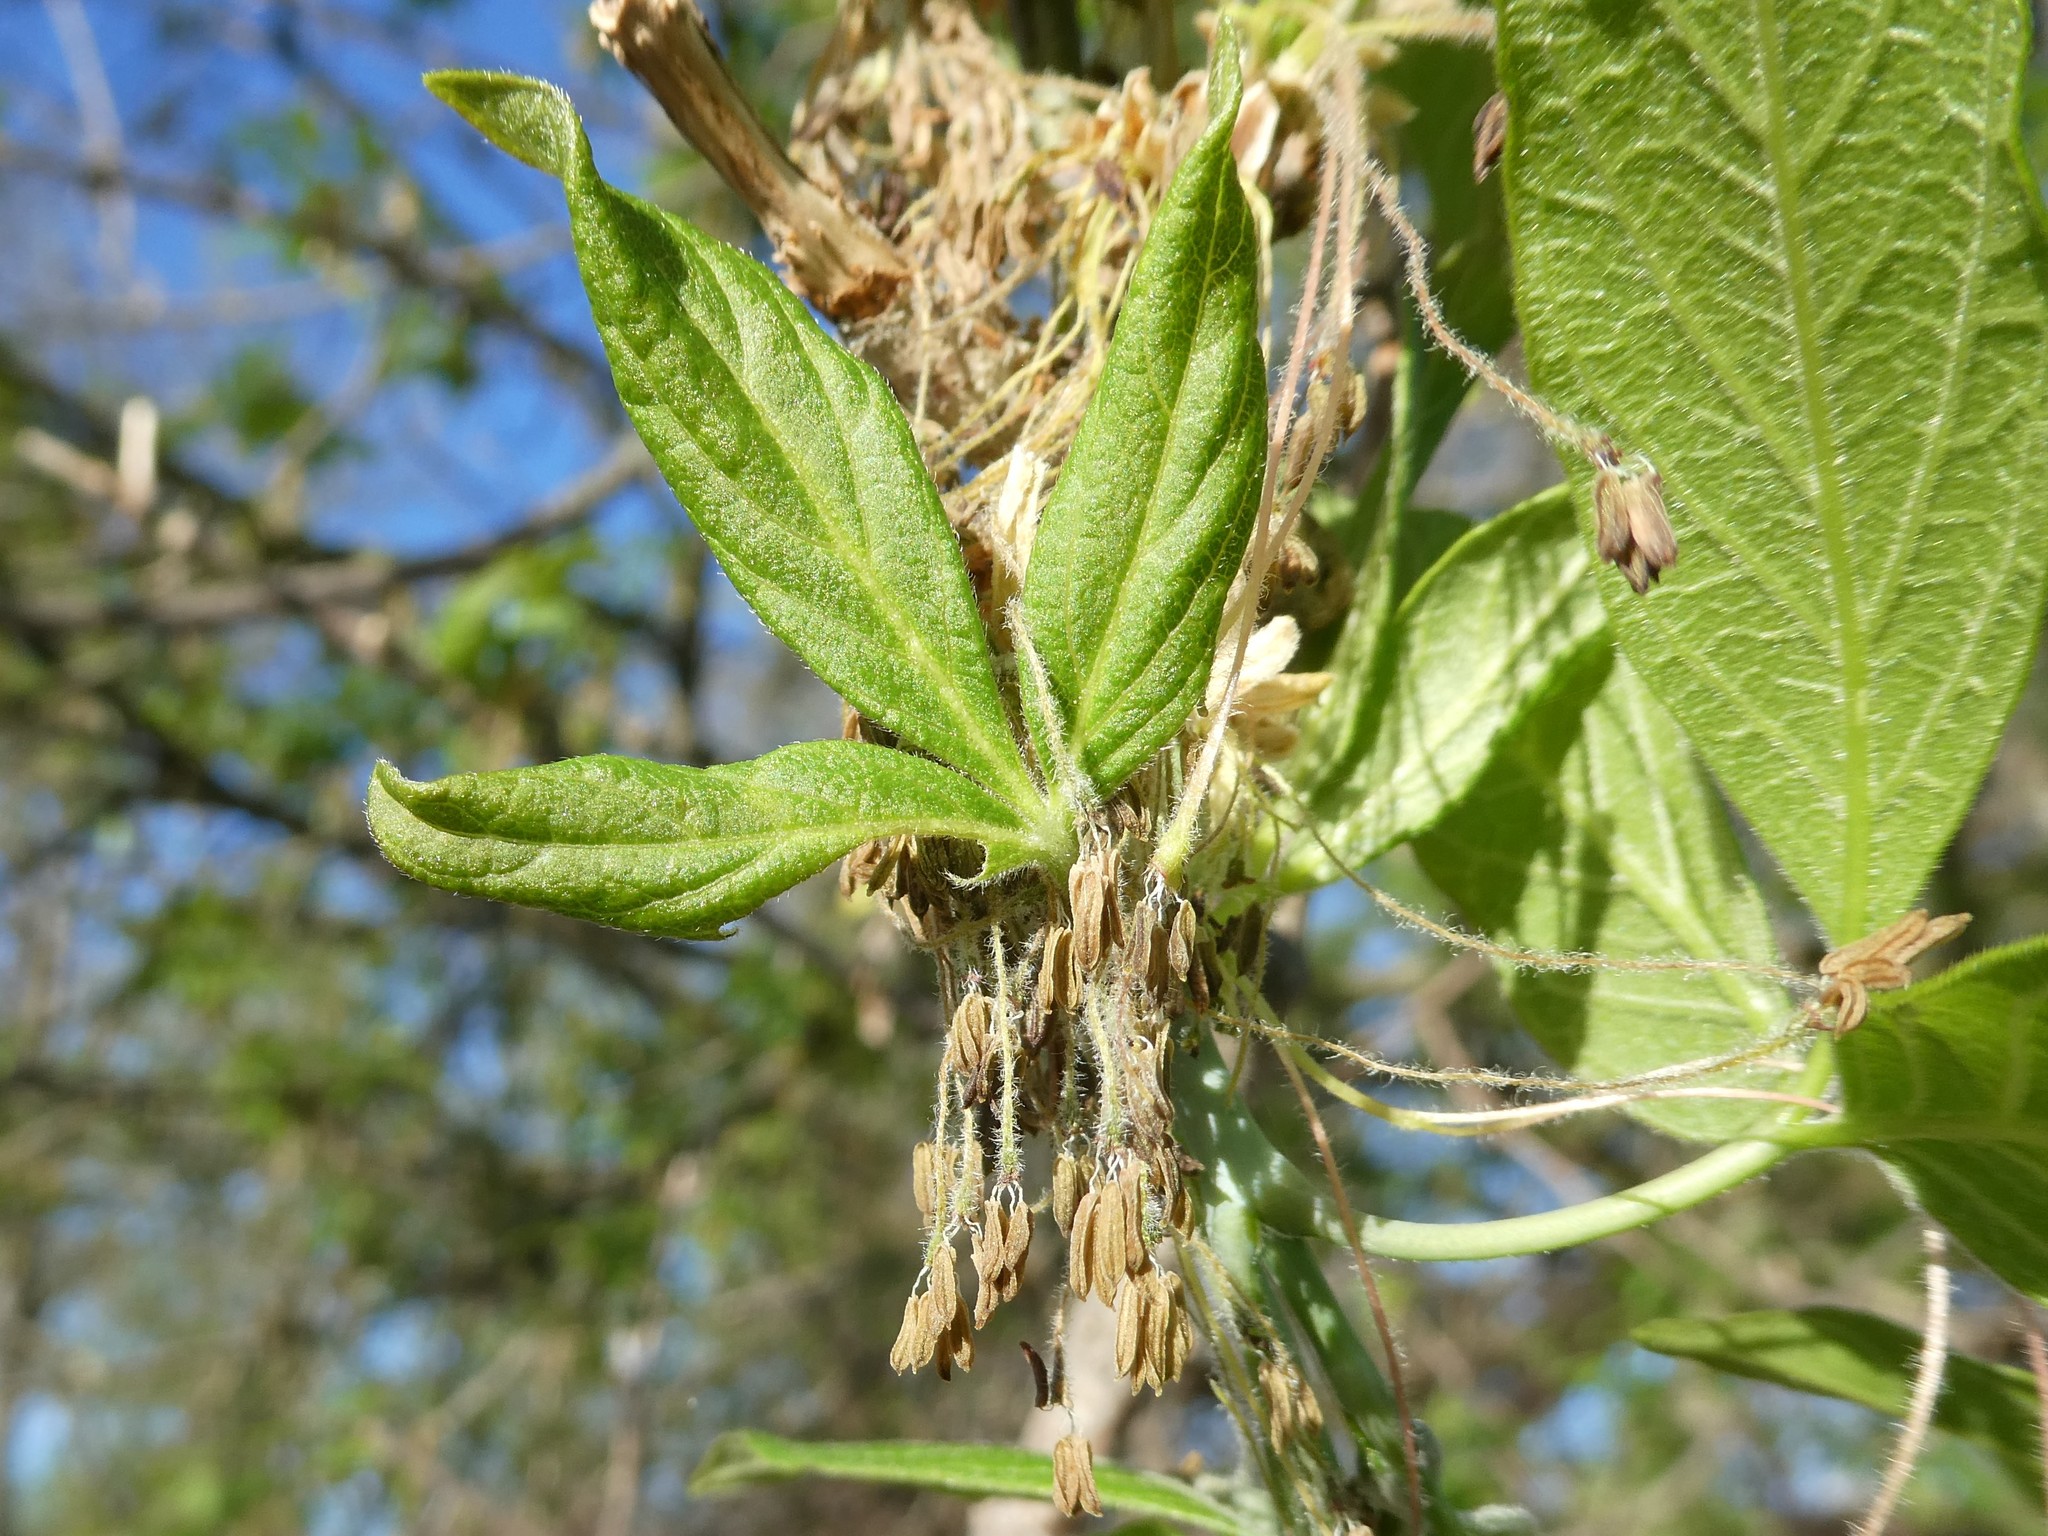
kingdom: Plantae
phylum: Tracheophyta
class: Magnoliopsida
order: Sapindales
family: Sapindaceae
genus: Acer
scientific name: Acer negundo
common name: Ashleaf maple
